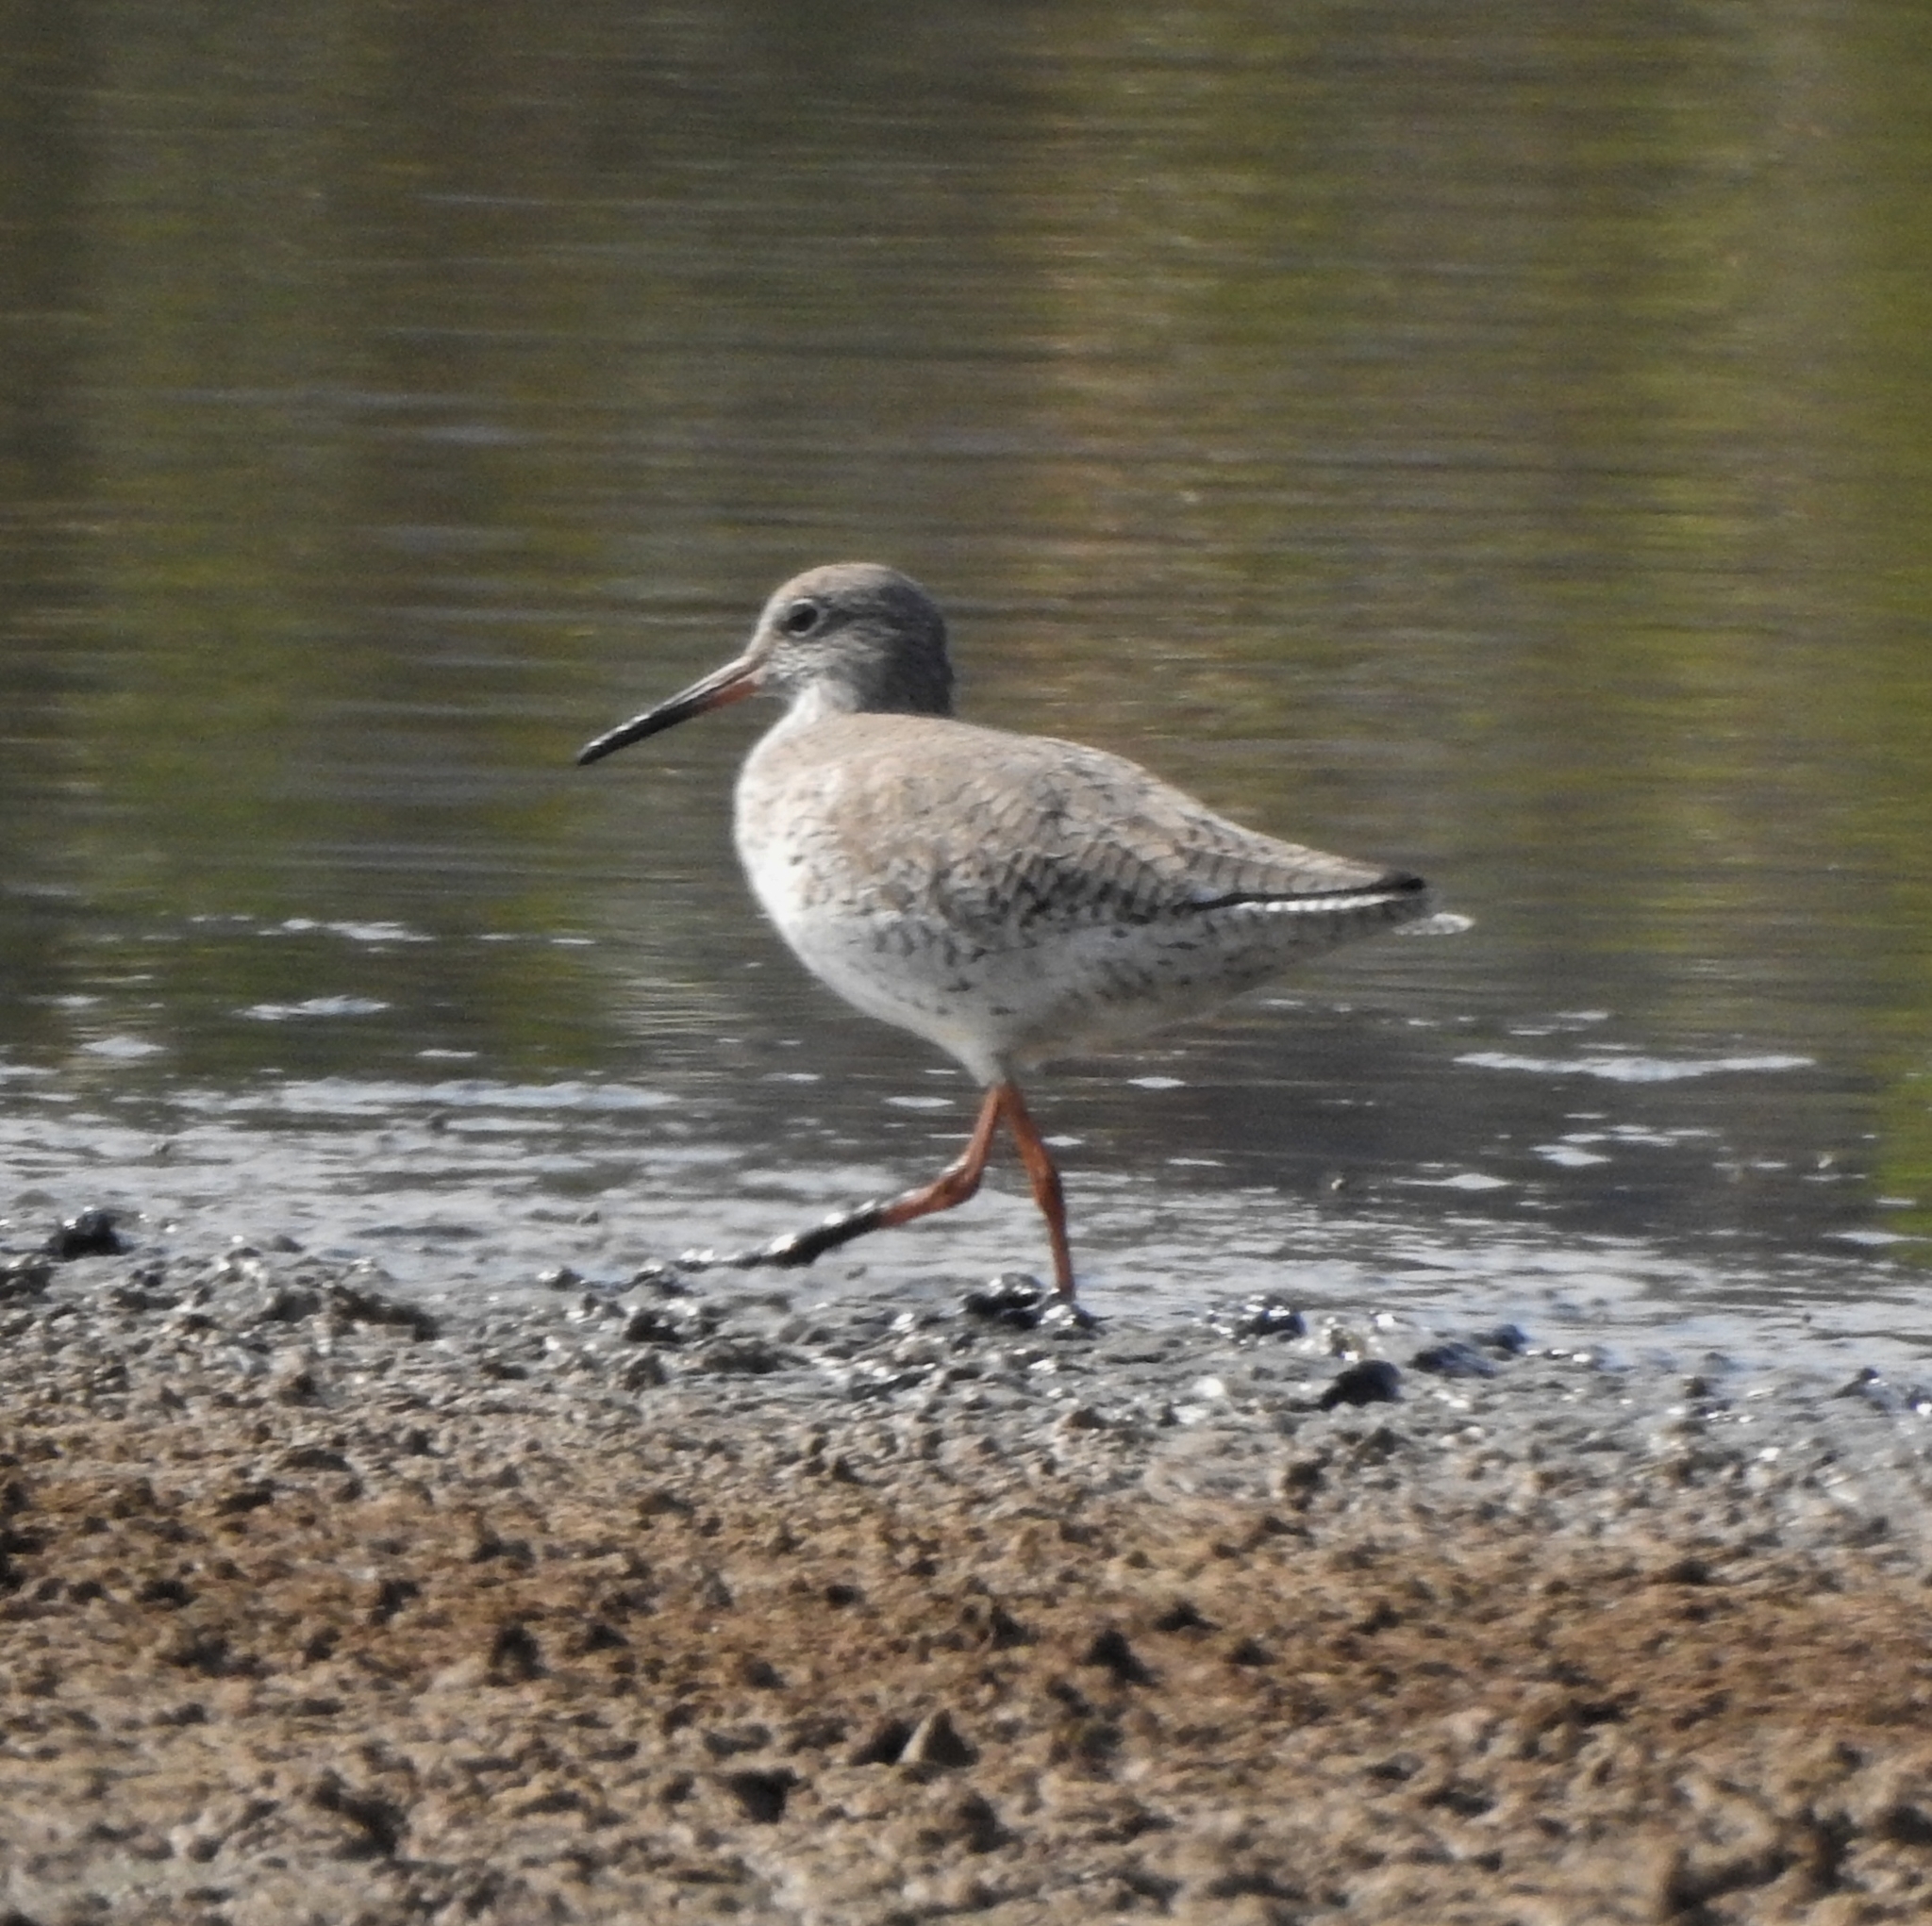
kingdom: Animalia
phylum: Chordata
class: Aves
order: Charadriiformes
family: Scolopacidae
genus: Tringa
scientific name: Tringa totanus
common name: Common redshank
